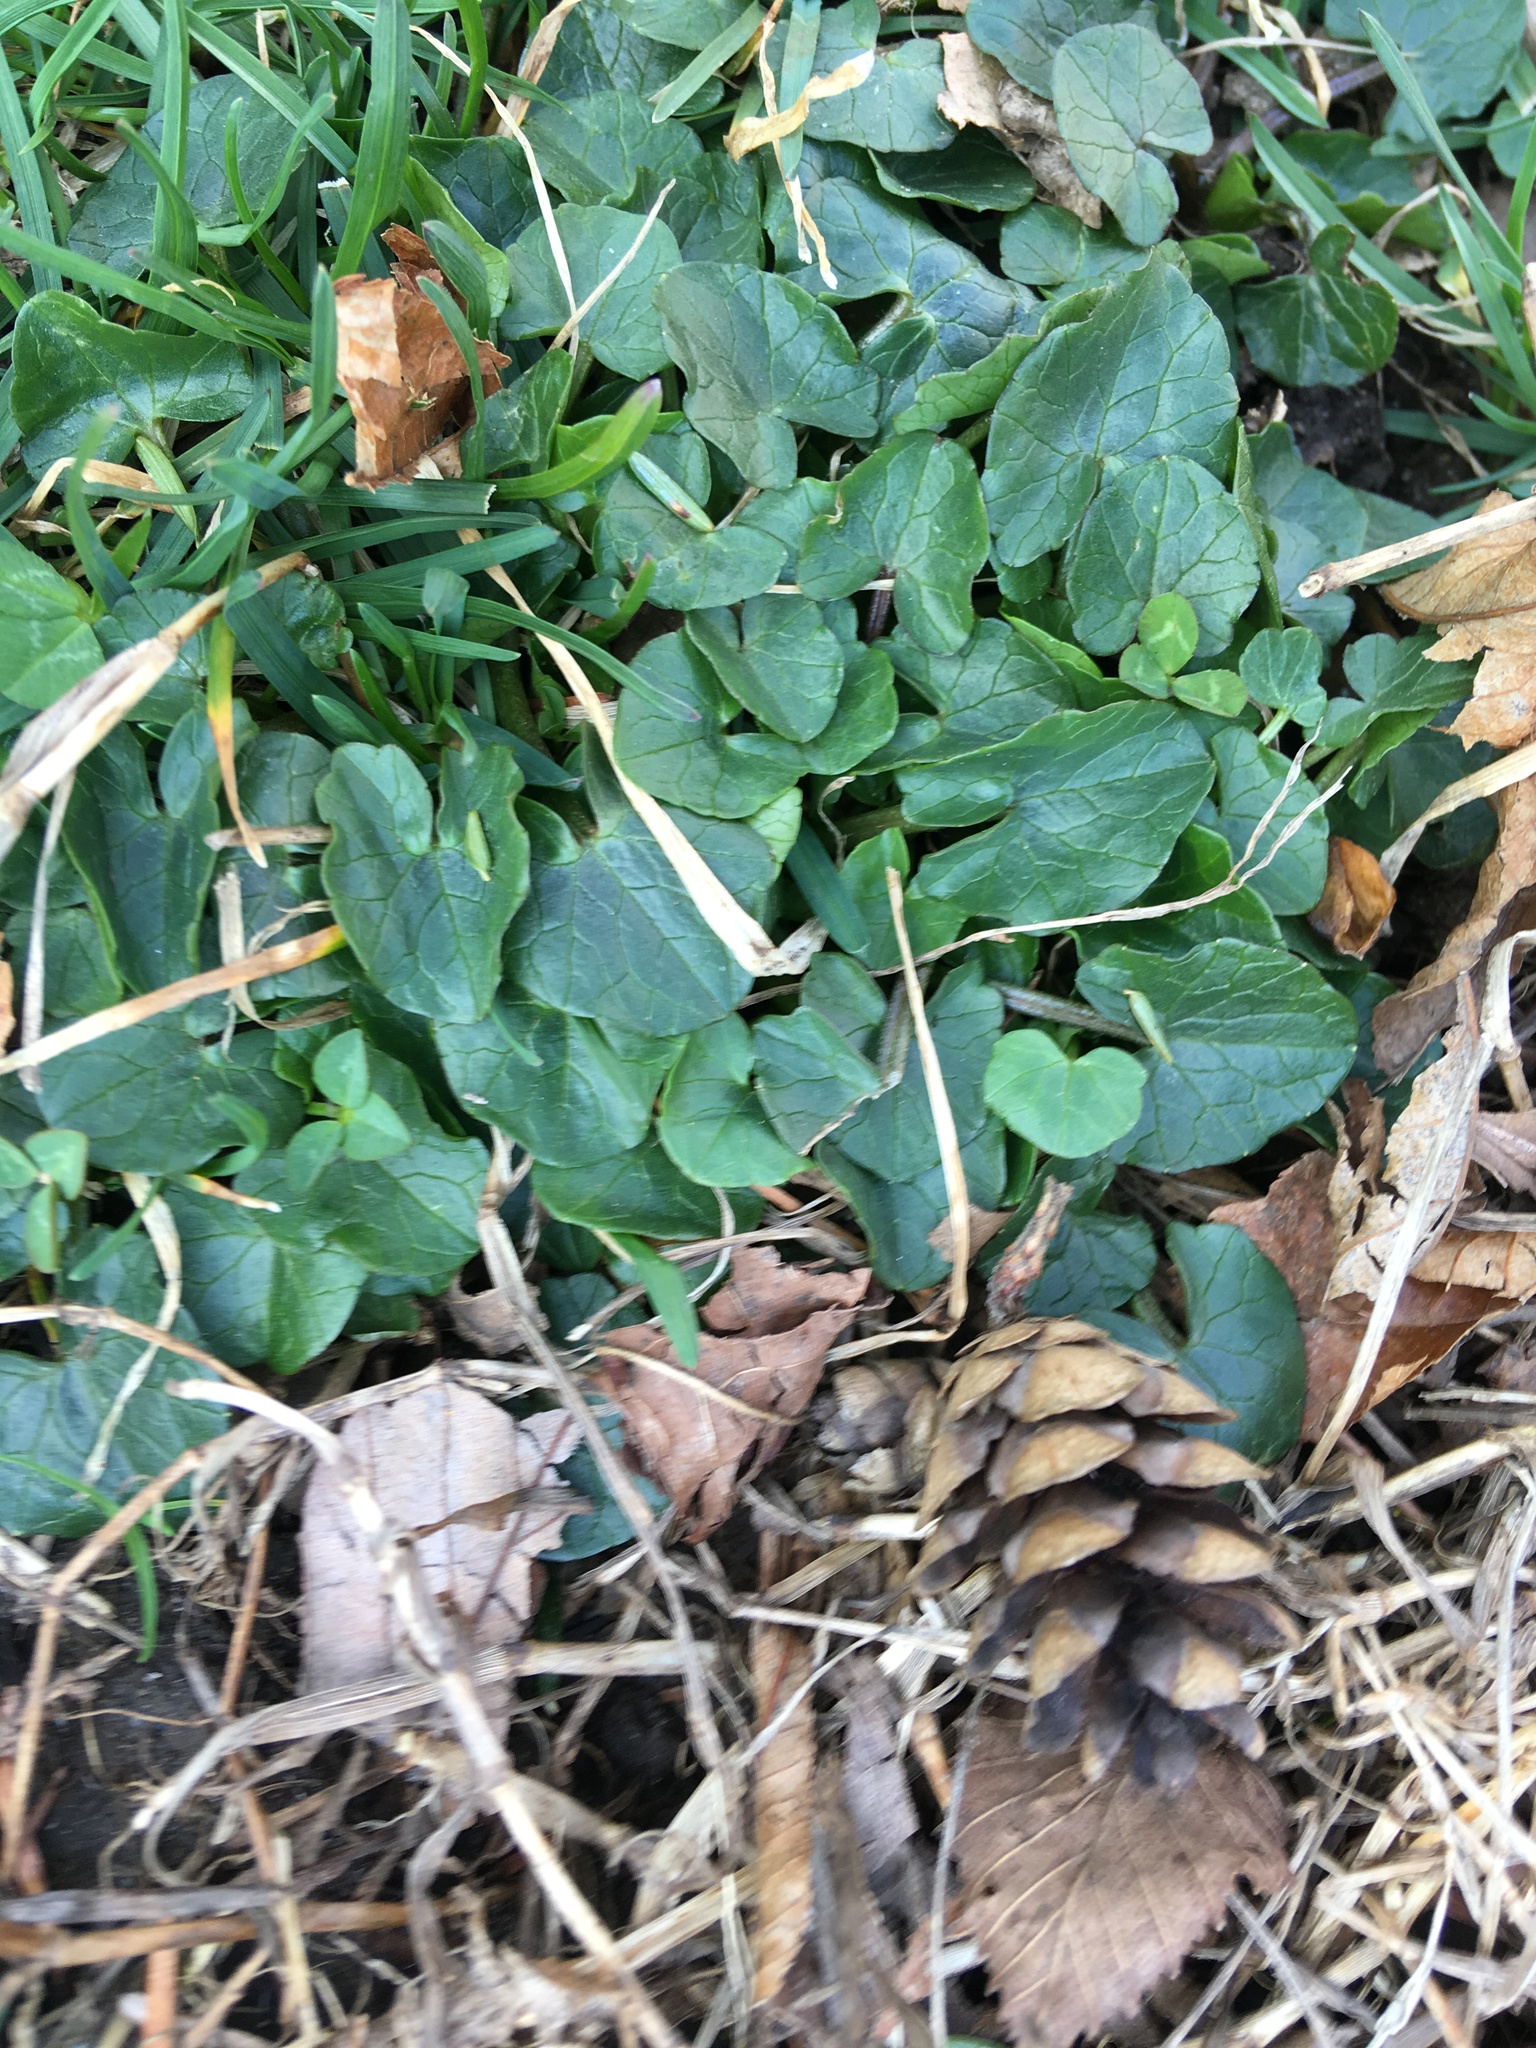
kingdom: Plantae
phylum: Tracheophyta
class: Magnoliopsida
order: Ranunculales
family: Ranunculaceae
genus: Ficaria
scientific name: Ficaria verna
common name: Lesser celandine
